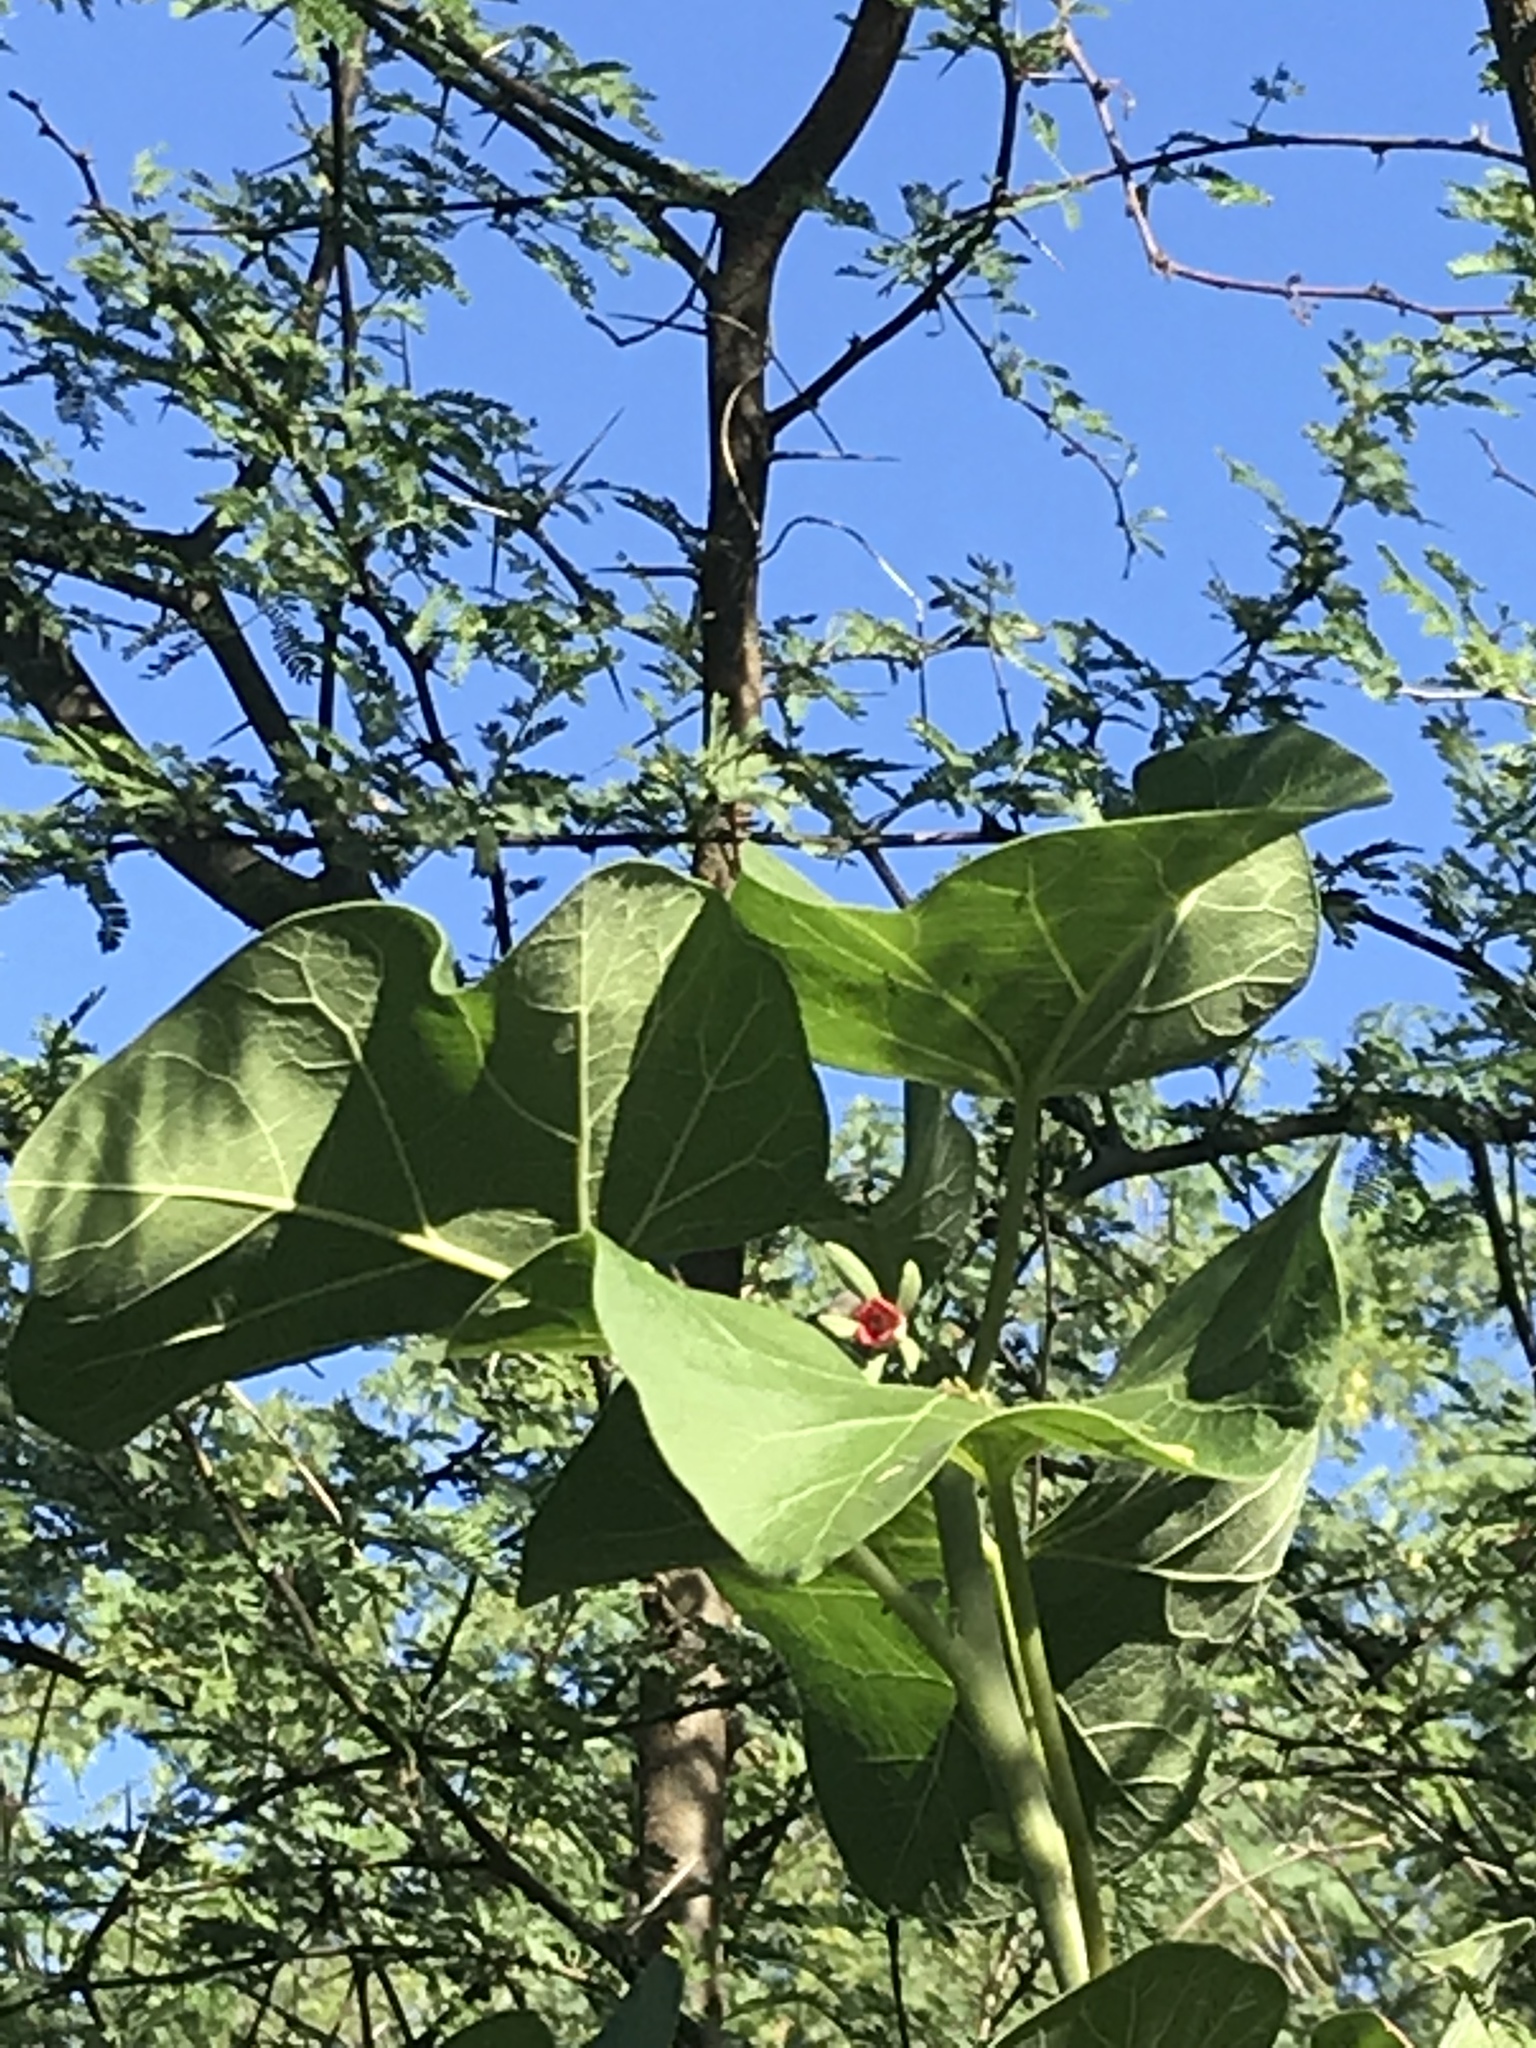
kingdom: Plantae
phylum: Tracheophyta
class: Magnoliopsida
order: Malpighiales
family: Euphorbiaceae
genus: Jatropha
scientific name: Jatropha cinerea
